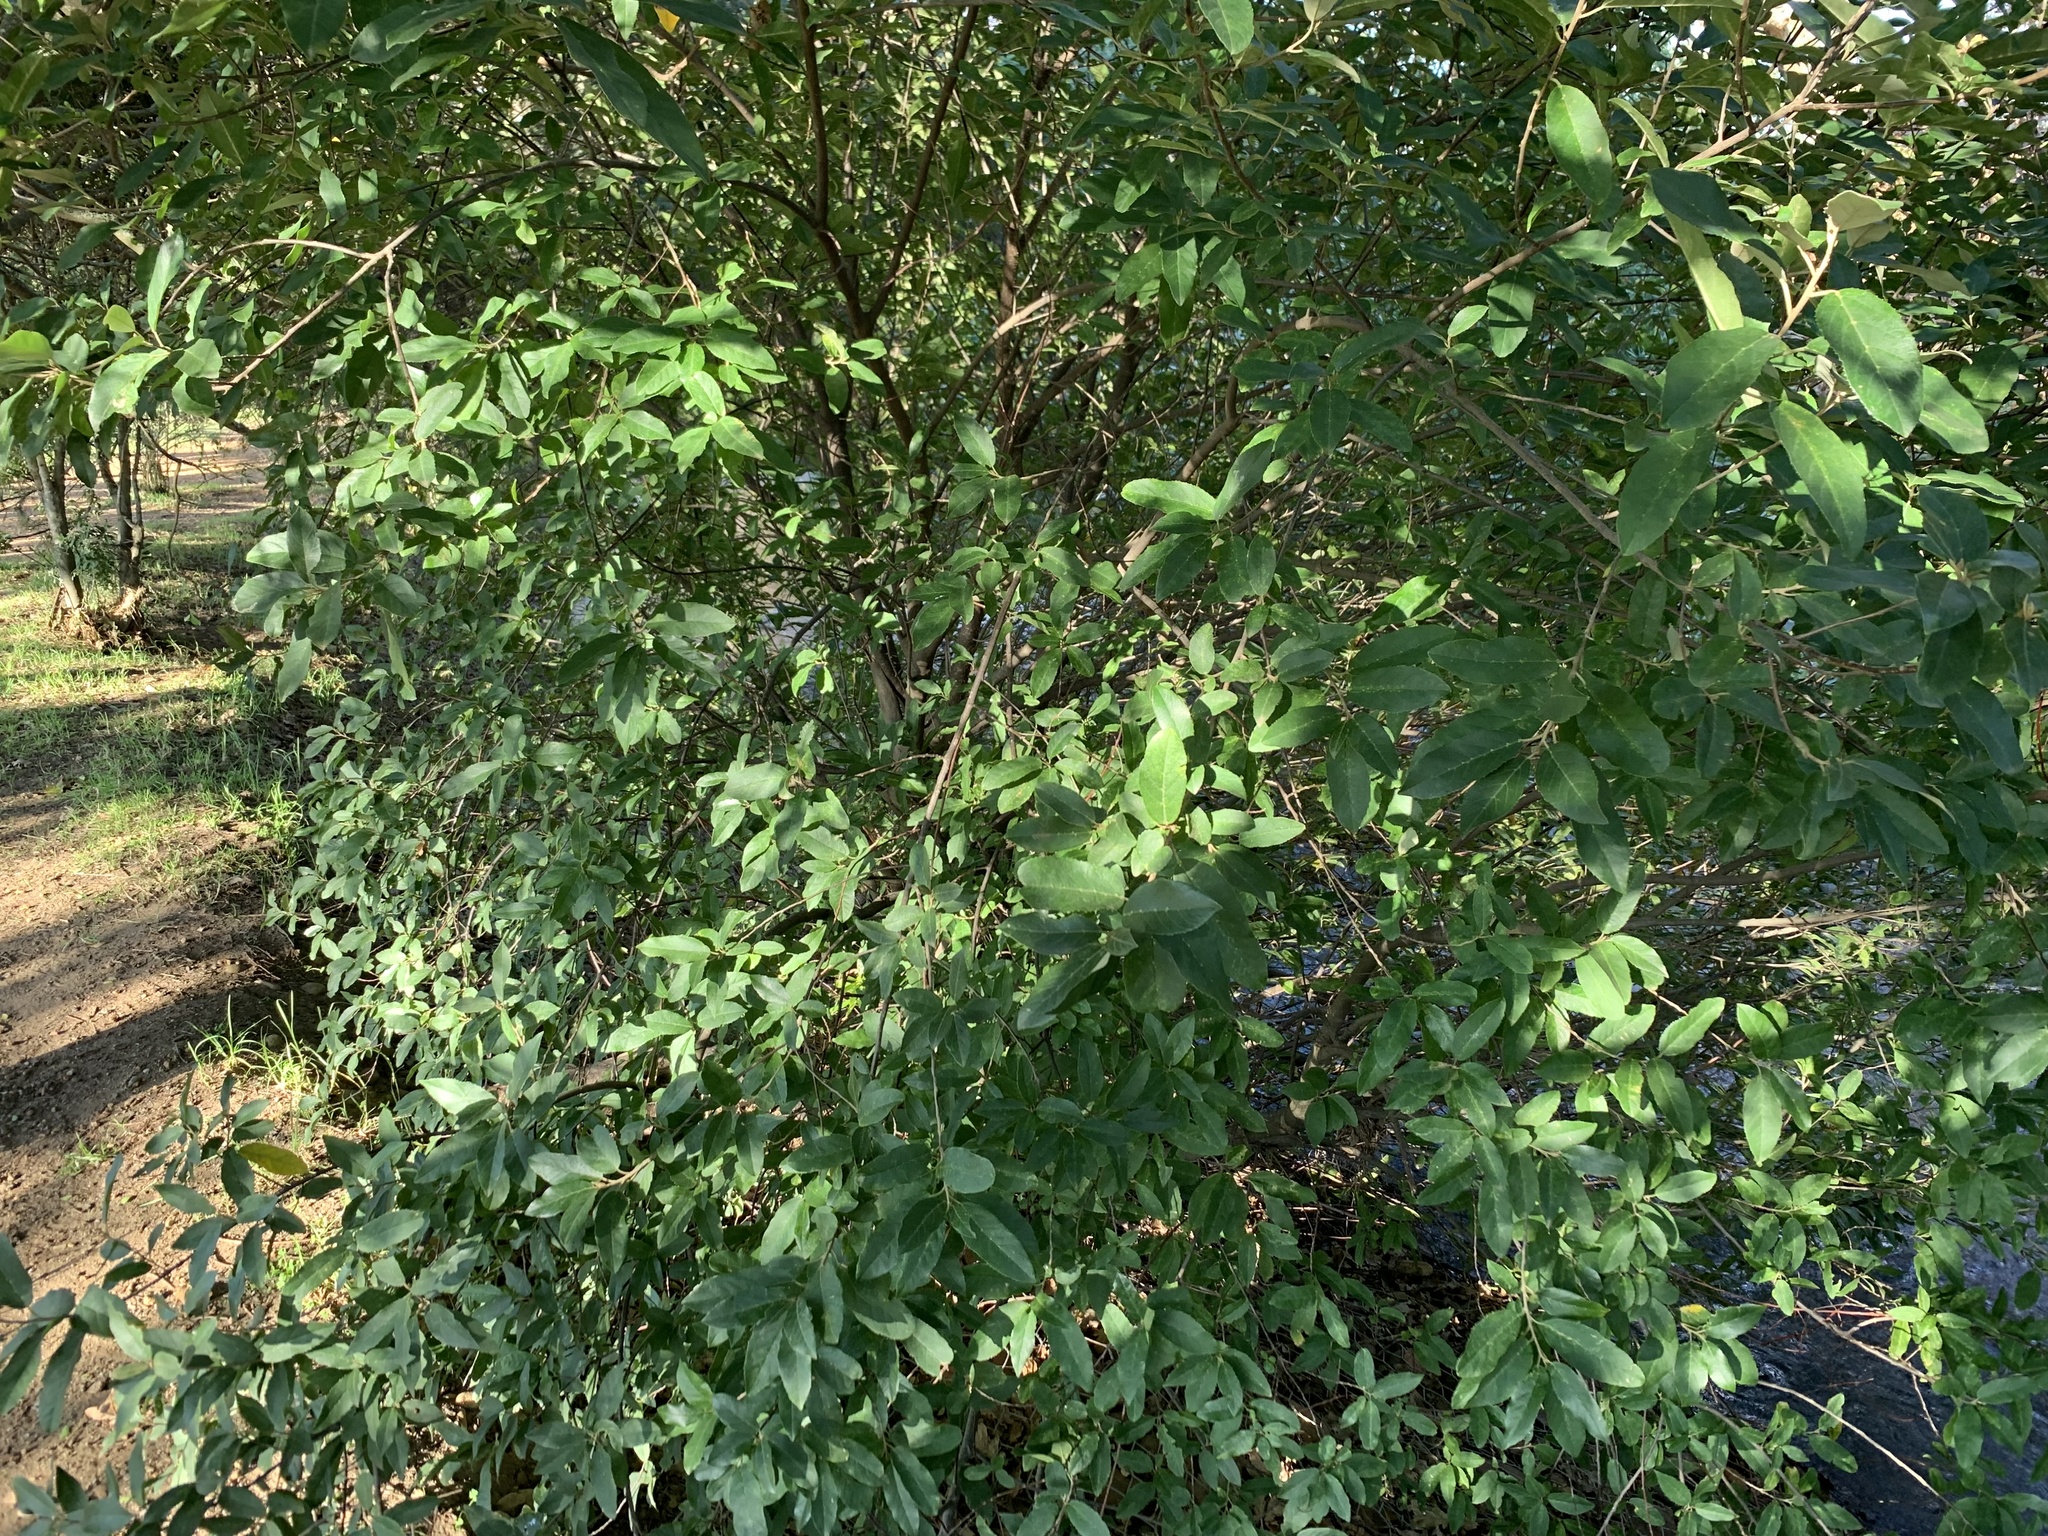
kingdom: Plantae
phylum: Tracheophyta
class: Magnoliopsida
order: Malpighiales
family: Achariaceae
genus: Kiggelaria
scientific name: Kiggelaria africana
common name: Wild peach
